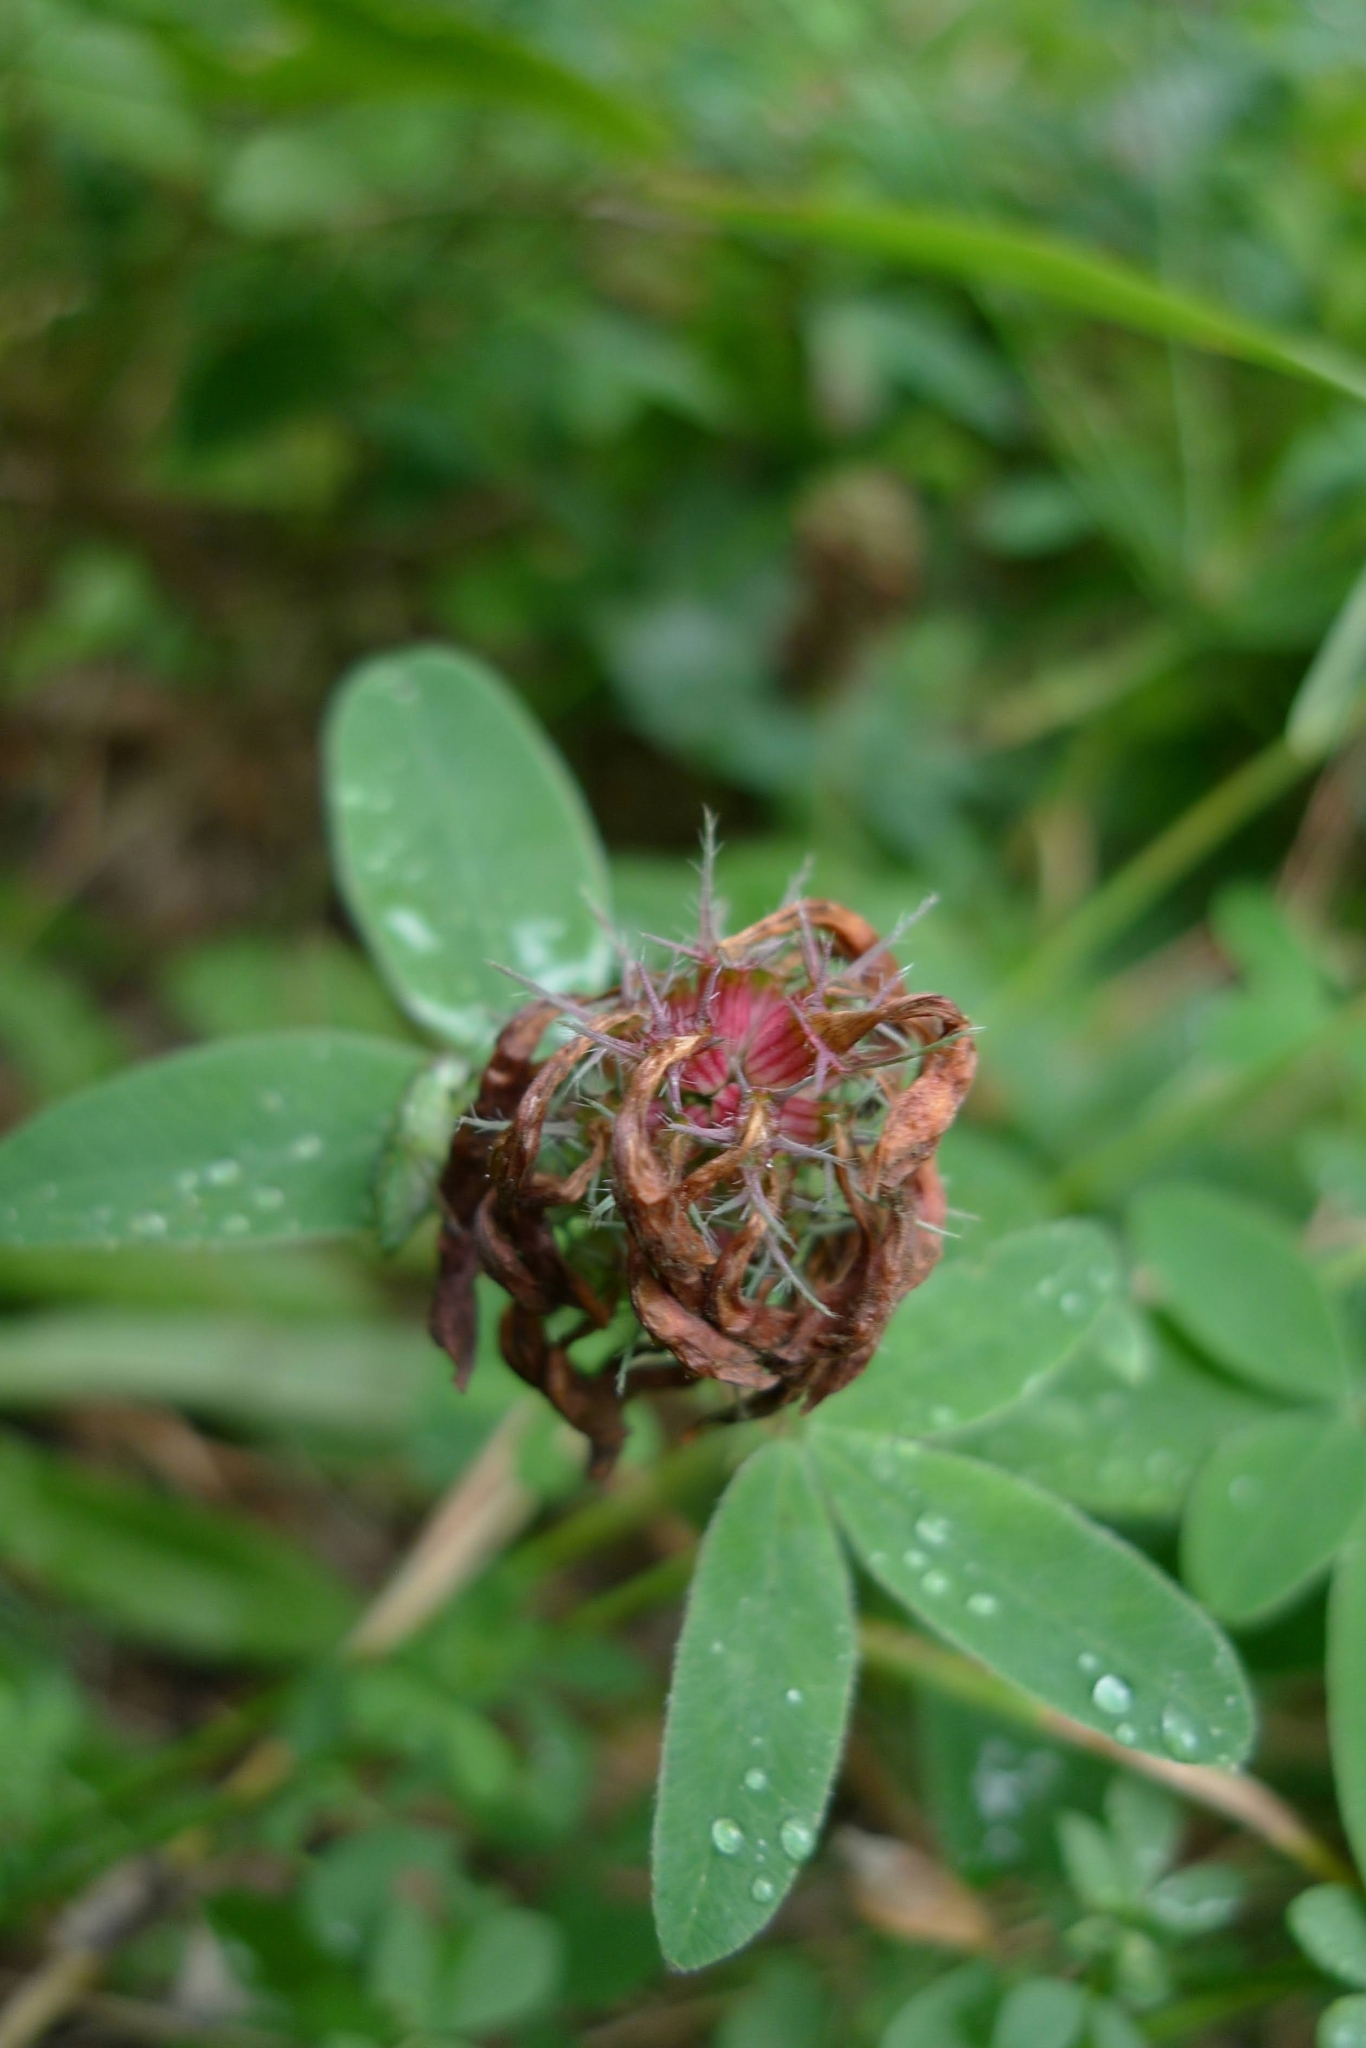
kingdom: Plantae
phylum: Tracheophyta
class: Magnoliopsida
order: Fabales
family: Fabaceae
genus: Trifolium
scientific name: Trifolium medium
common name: Zigzag clover
